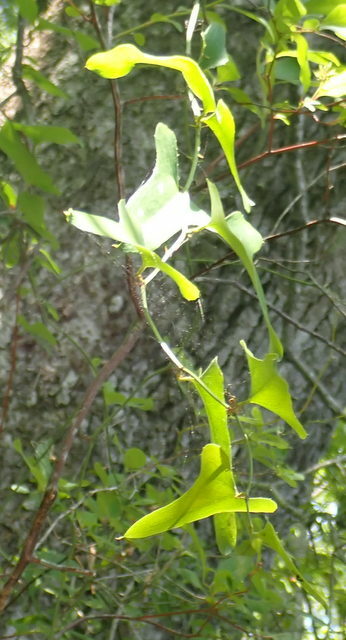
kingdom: Plantae
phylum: Tracheophyta
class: Liliopsida
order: Liliales
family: Smilacaceae
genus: Smilax
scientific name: Smilax bona-nox
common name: Catbrier
